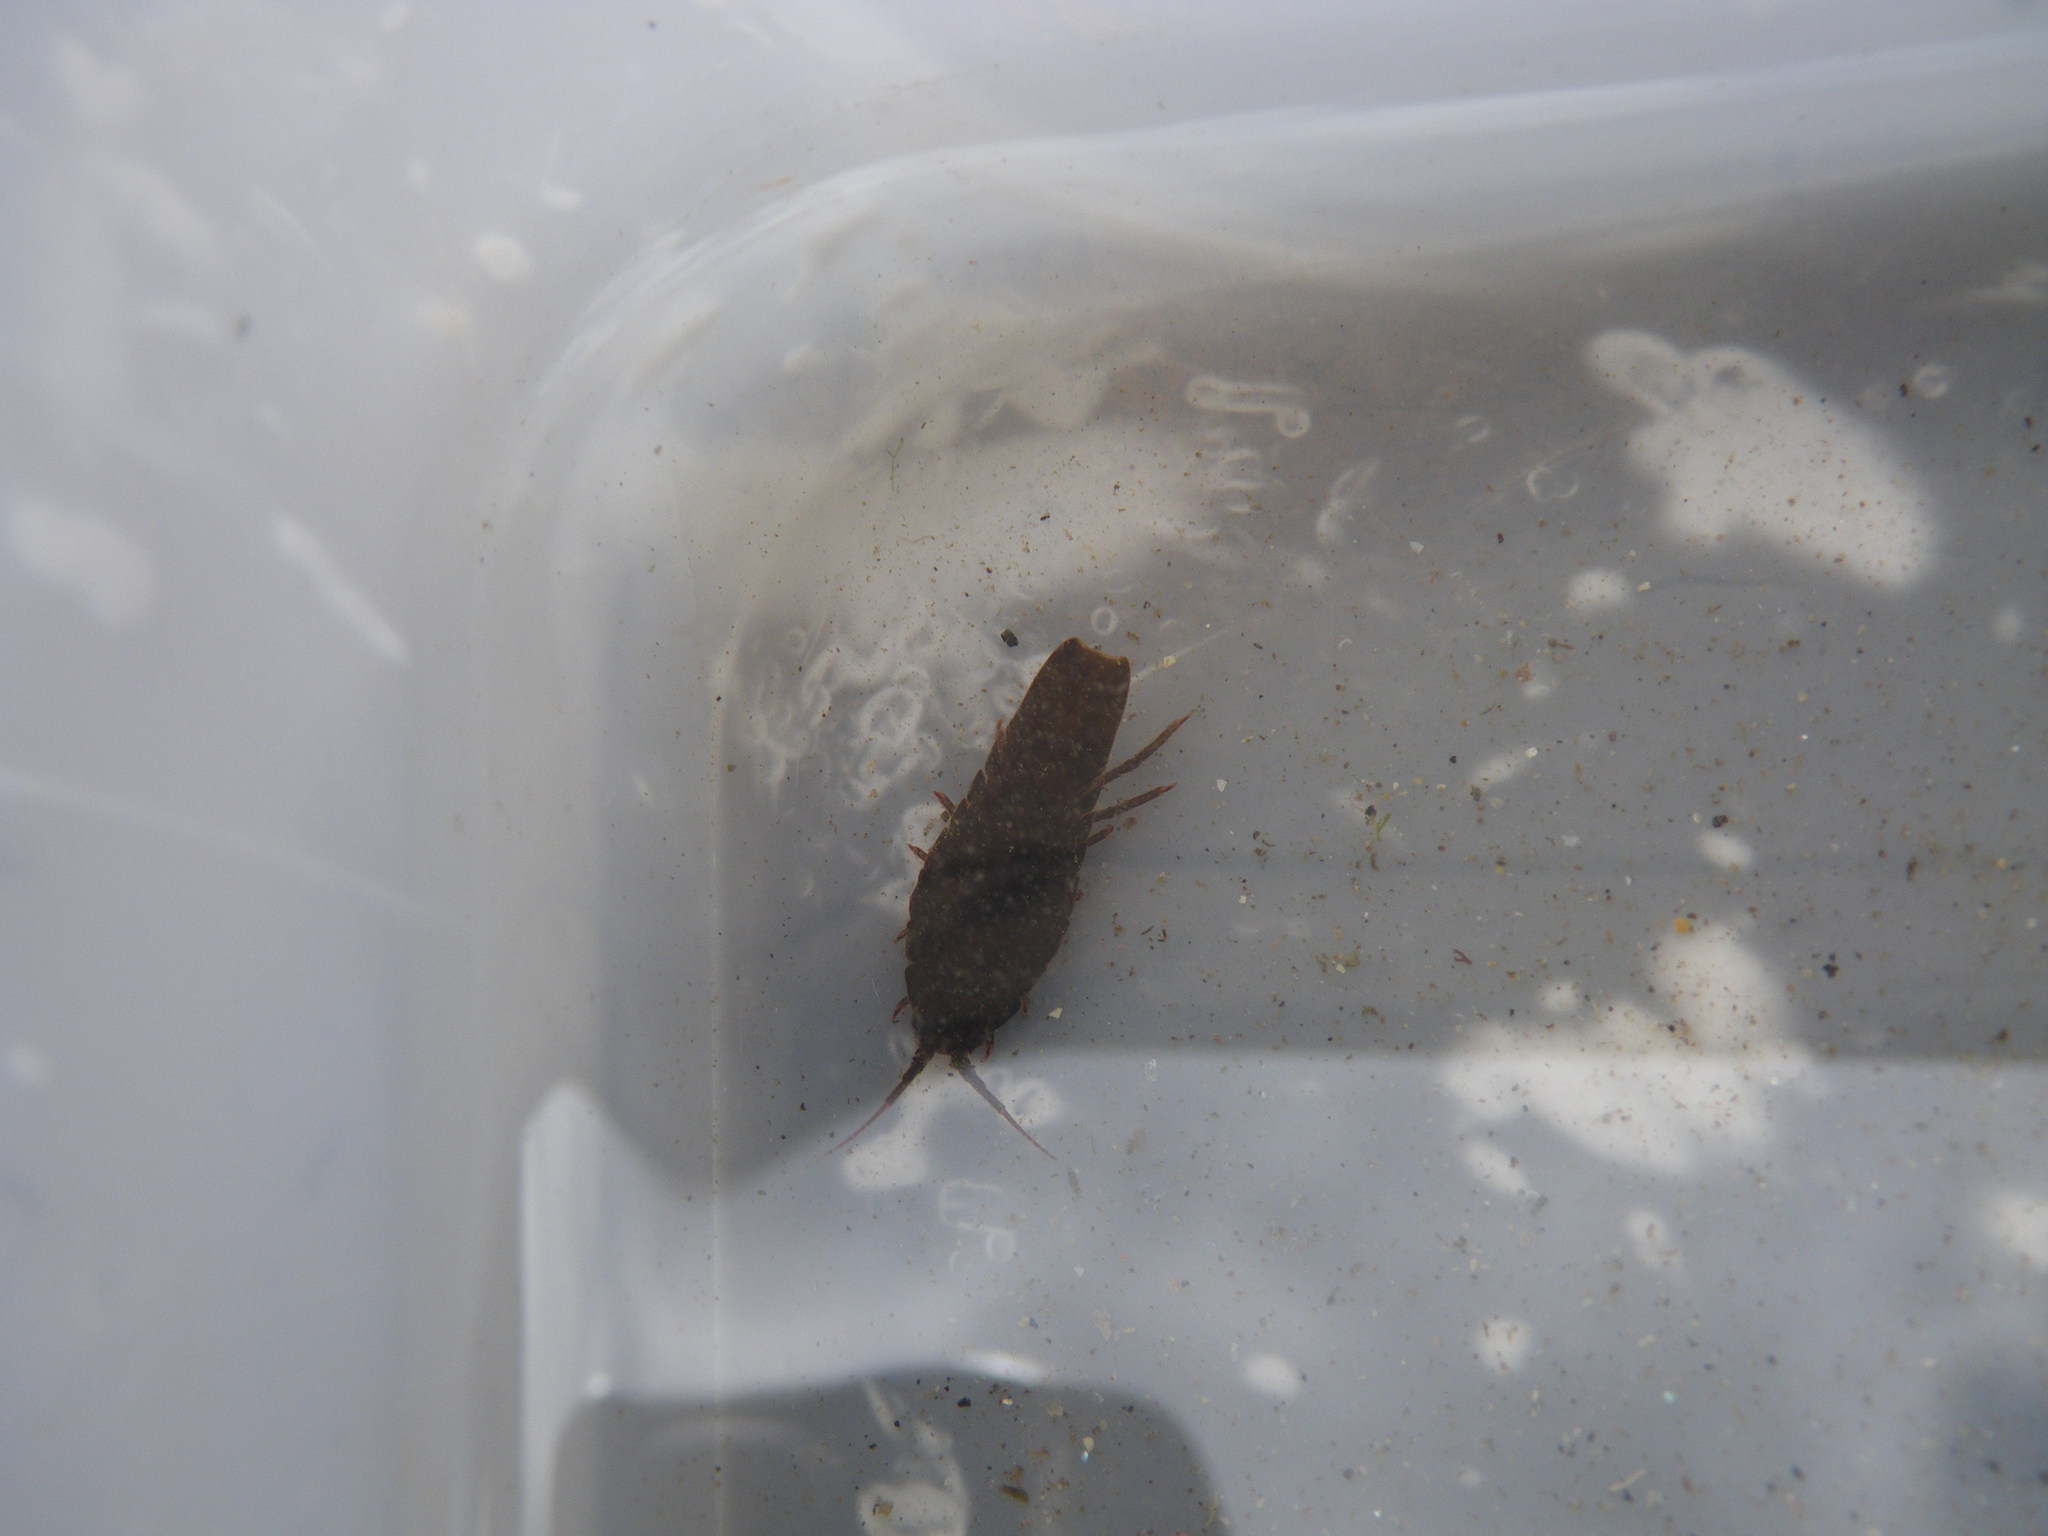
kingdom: Animalia
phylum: Arthropoda
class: Malacostraca
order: Isopoda
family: Idoteidae
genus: Idotea
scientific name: Idotea emarginata
